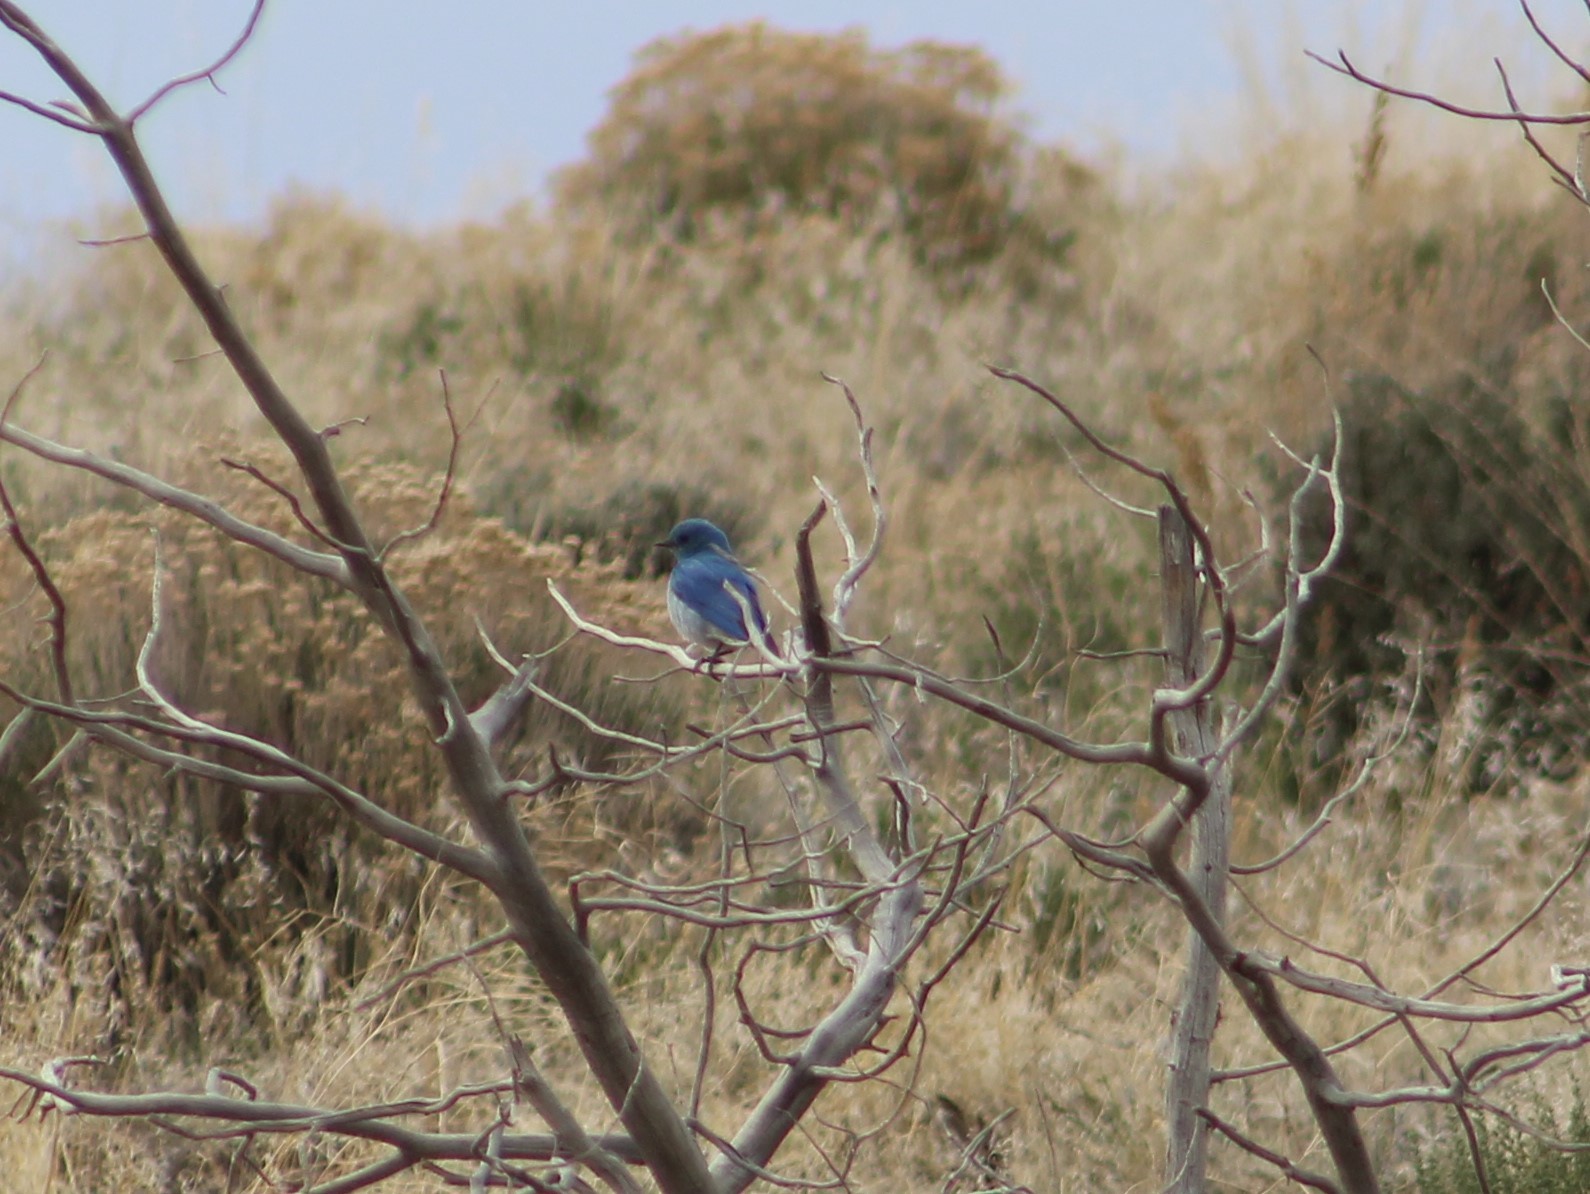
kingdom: Animalia
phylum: Chordata
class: Aves
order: Passeriformes
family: Turdidae
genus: Sialia
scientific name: Sialia currucoides
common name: Mountain bluebird
